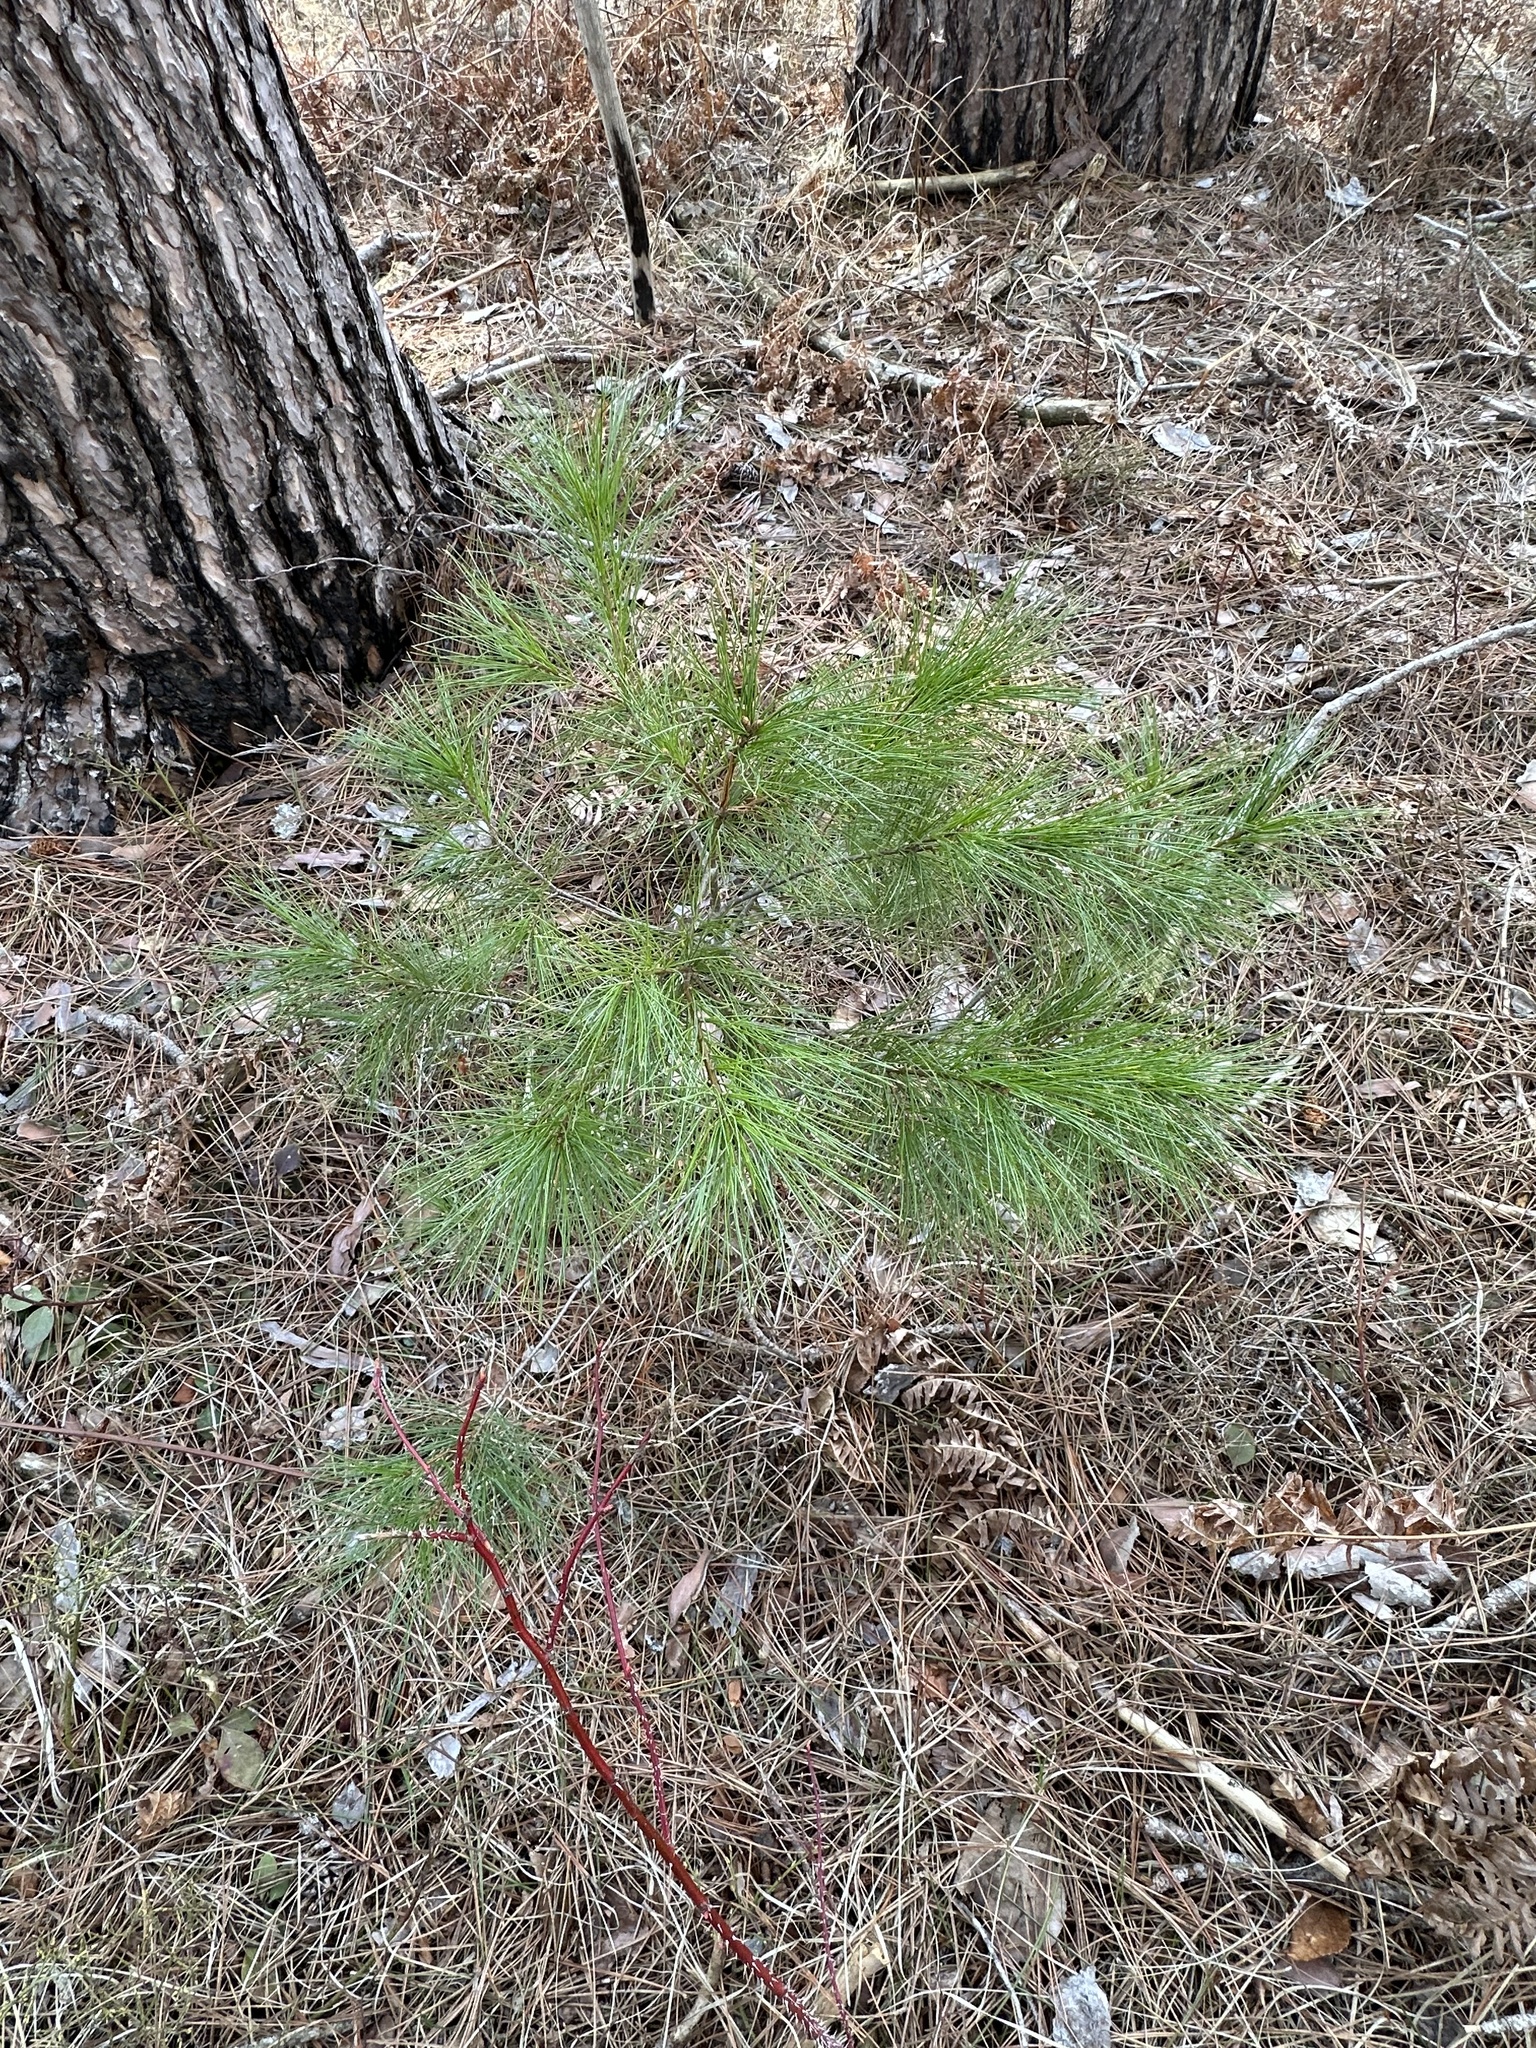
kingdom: Plantae
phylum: Tracheophyta
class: Pinopsida
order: Pinales
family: Pinaceae
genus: Pinus
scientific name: Pinus strobus
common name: Weymouth pine
